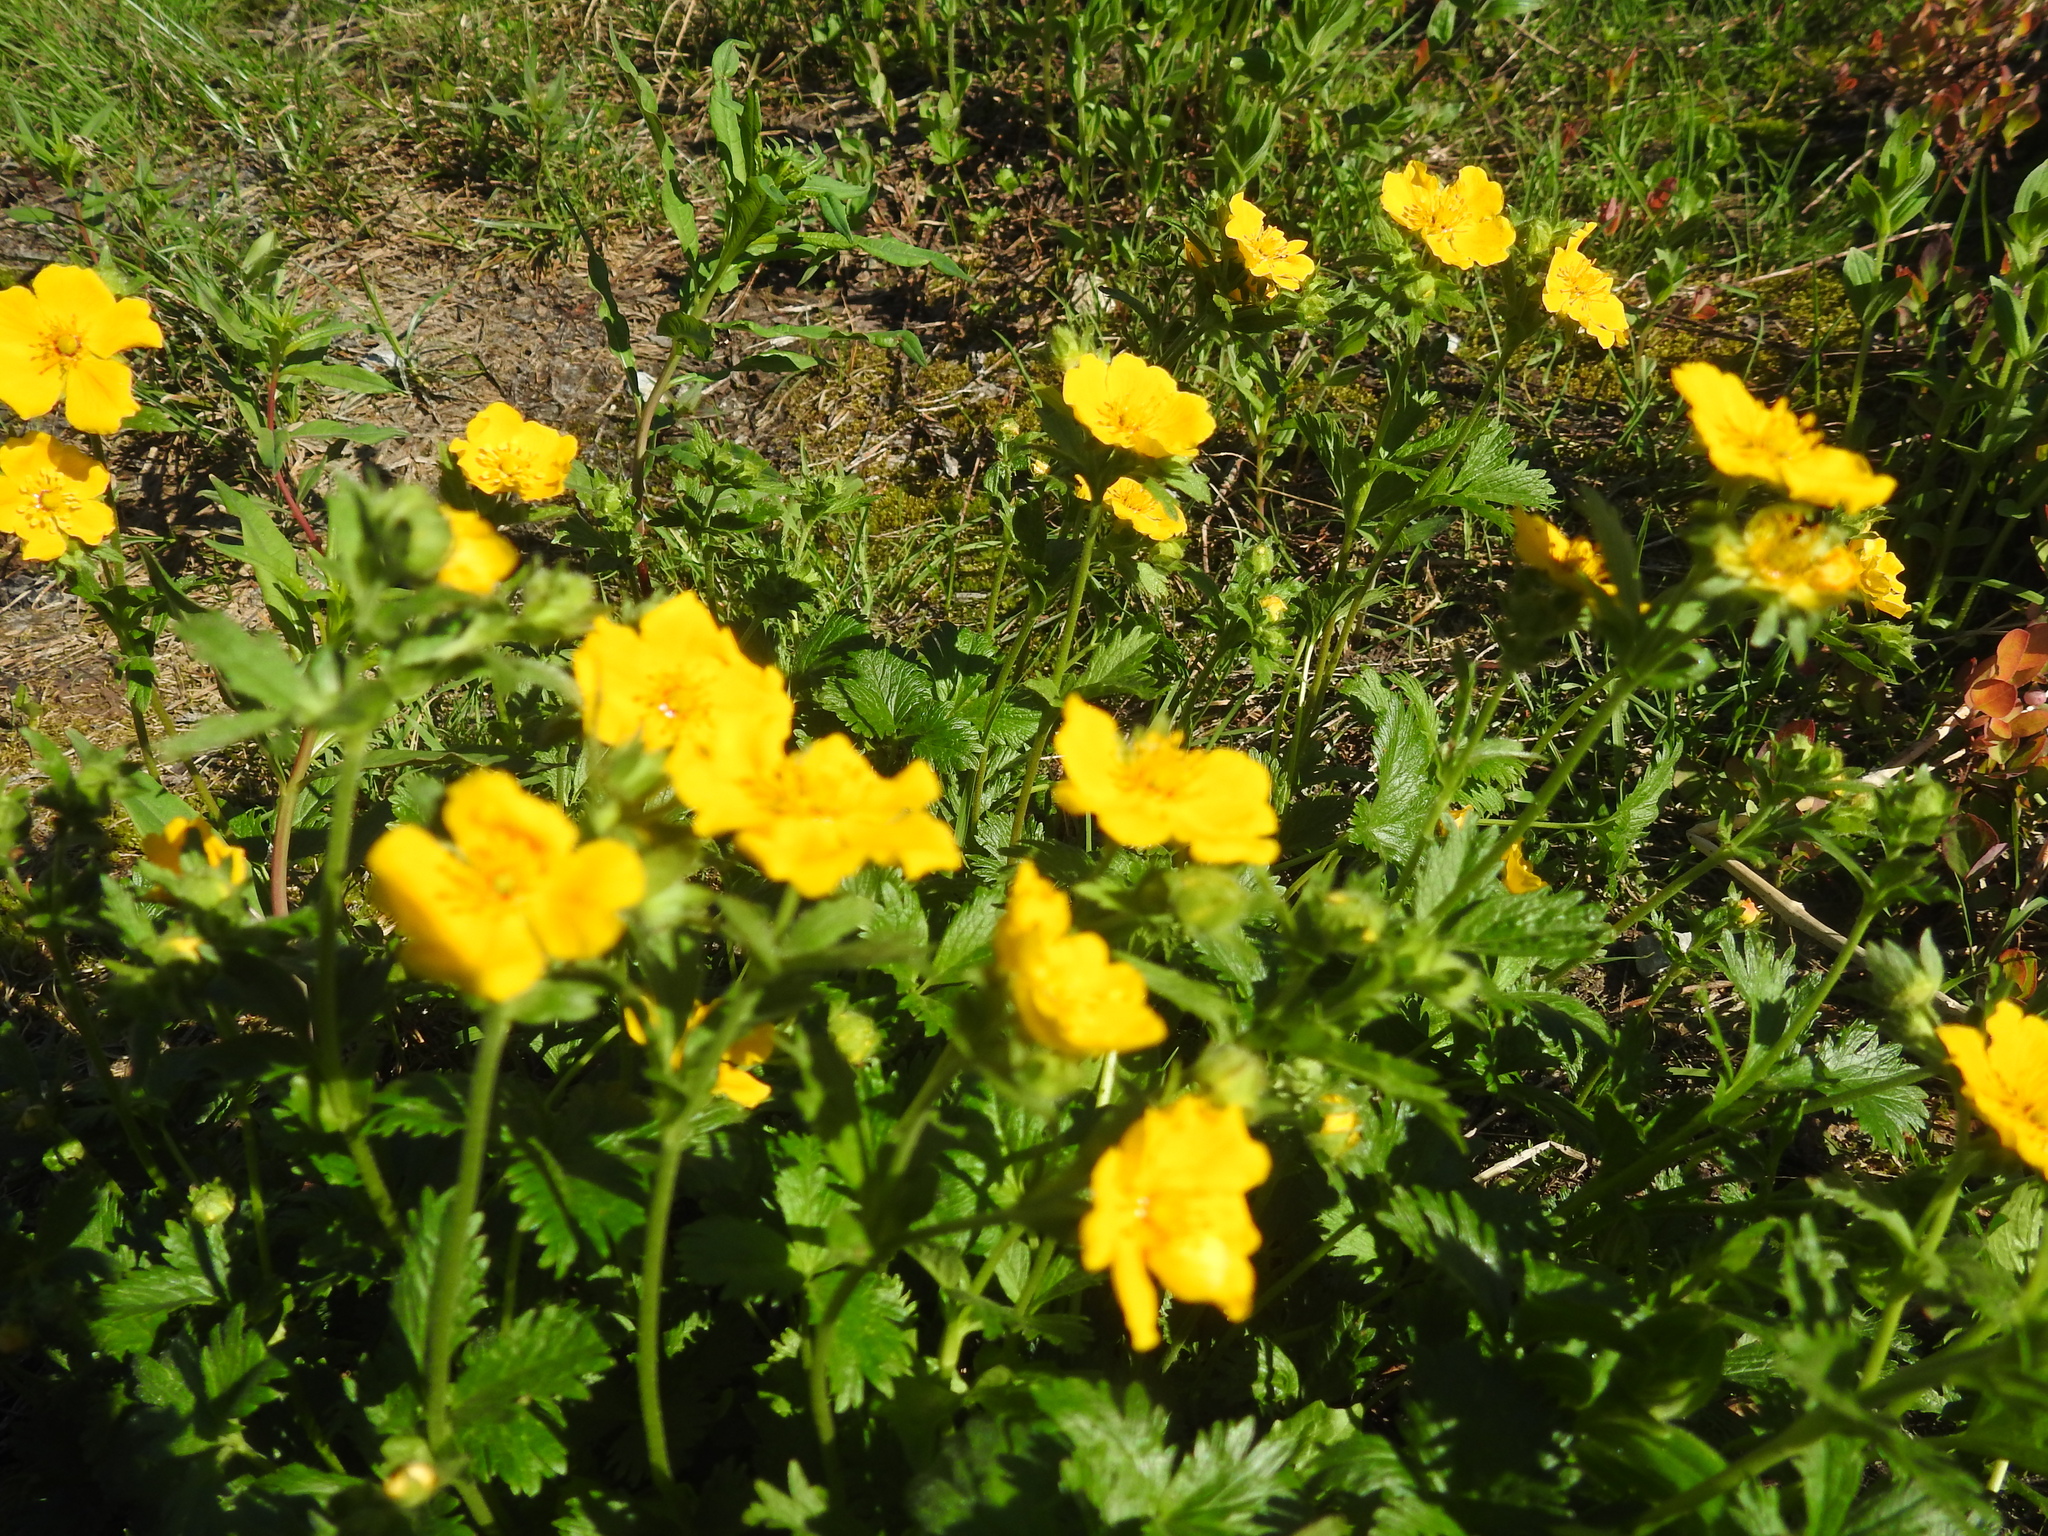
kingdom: Plantae
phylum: Tracheophyta
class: Magnoliopsida
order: Rosales
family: Rosaceae
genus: Potentilla
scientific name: Potentilla flabellifolia
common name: Mount rainier cinquefoil
